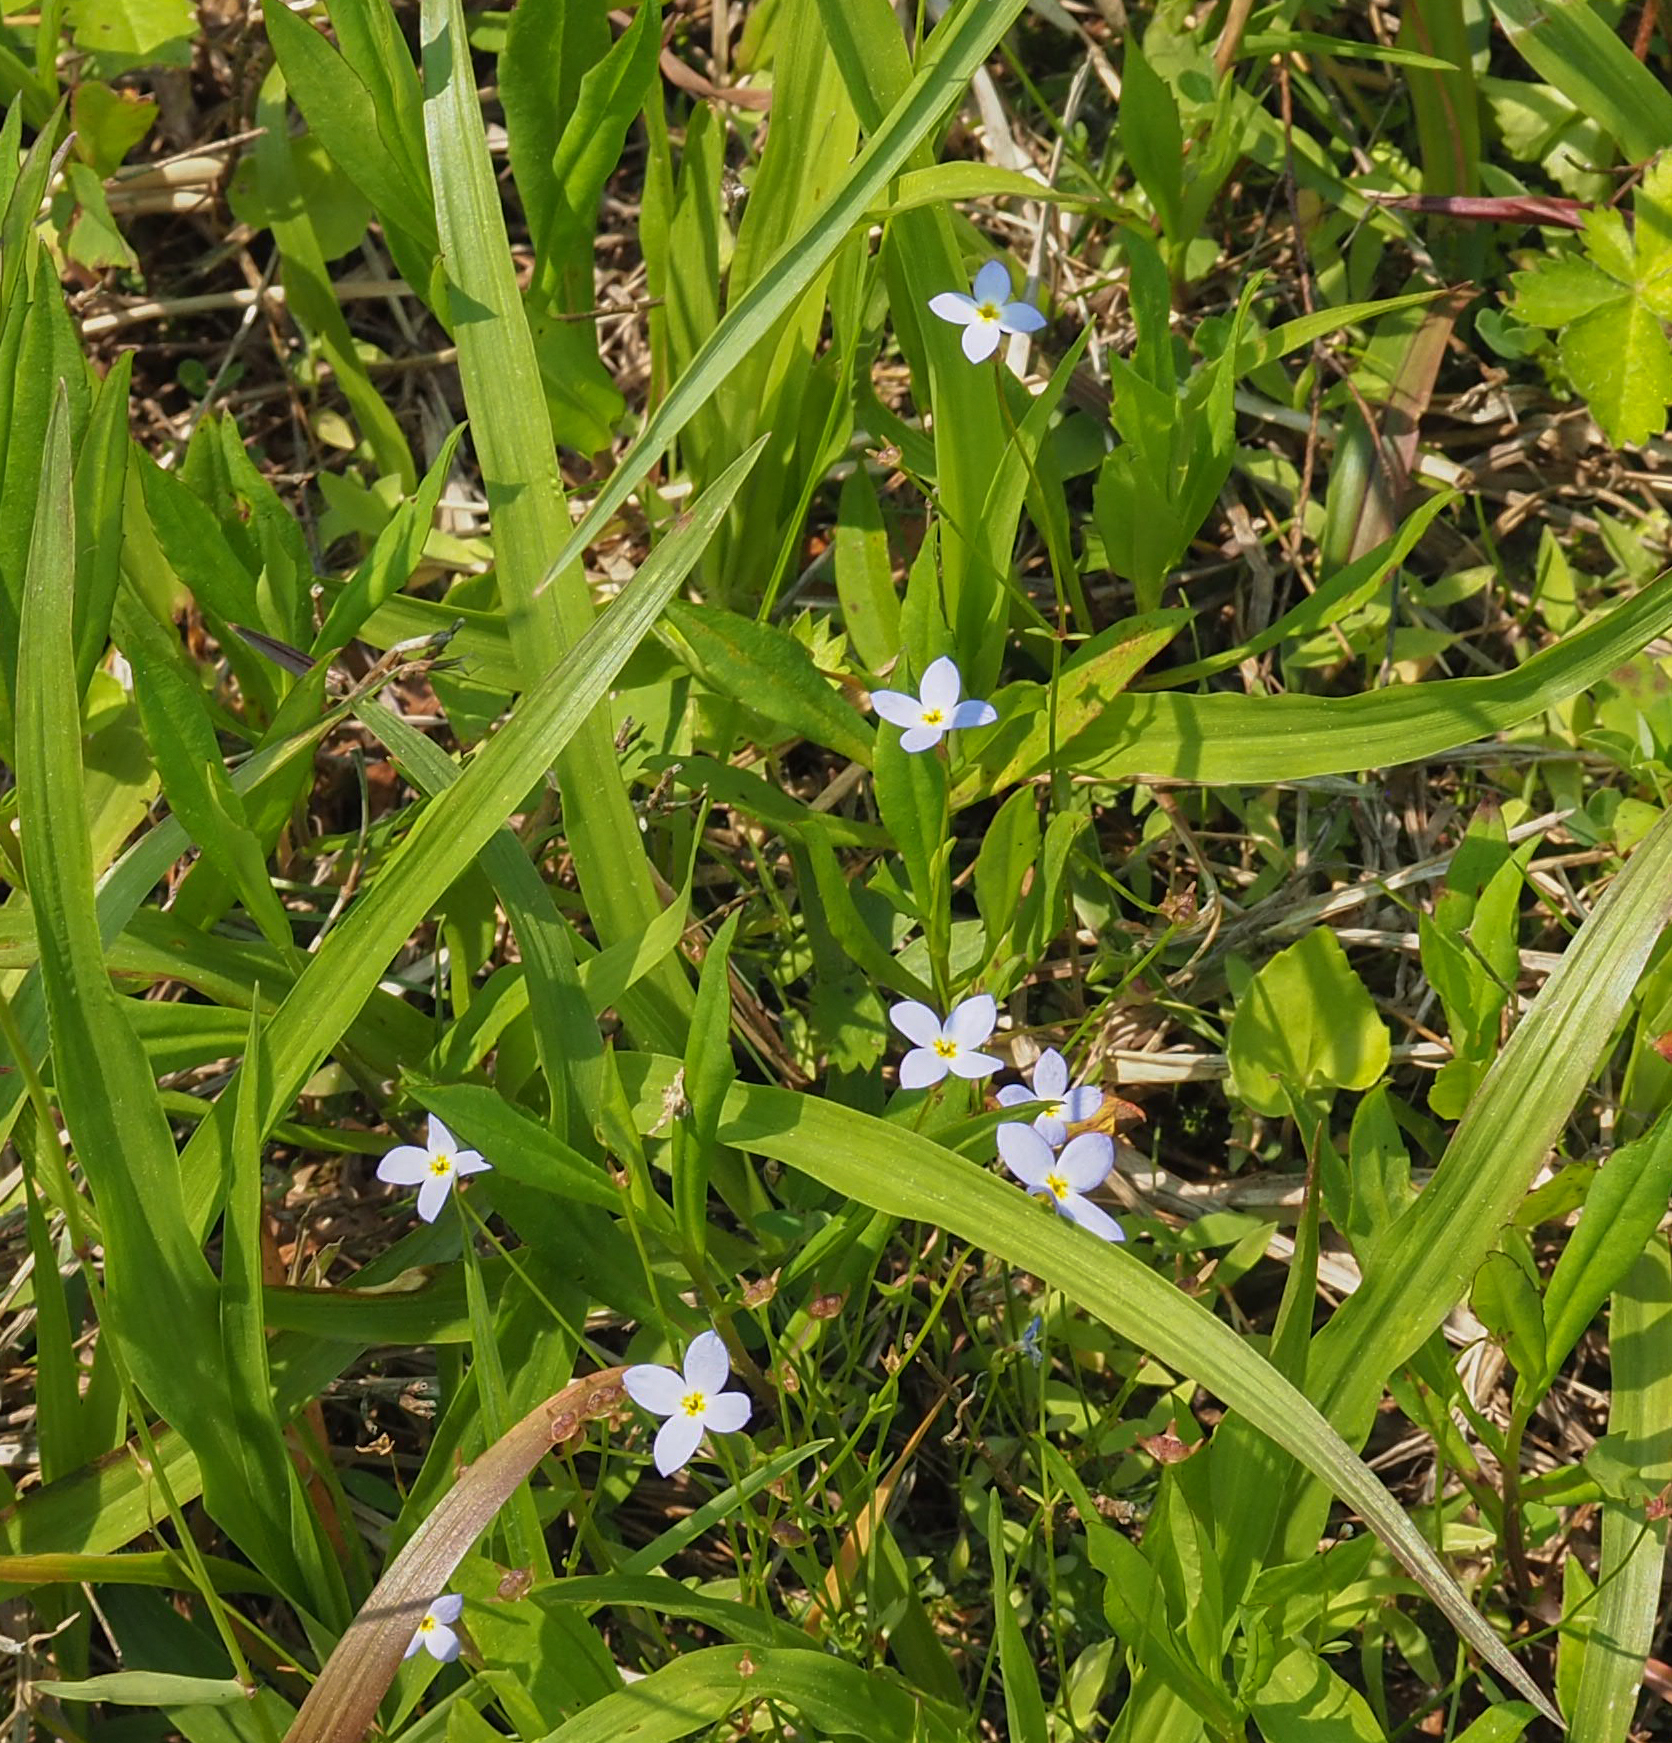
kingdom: Plantae
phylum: Tracheophyta
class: Magnoliopsida
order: Gentianales
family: Rubiaceae
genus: Houstonia
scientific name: Houstonia caerulea
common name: Bluets
